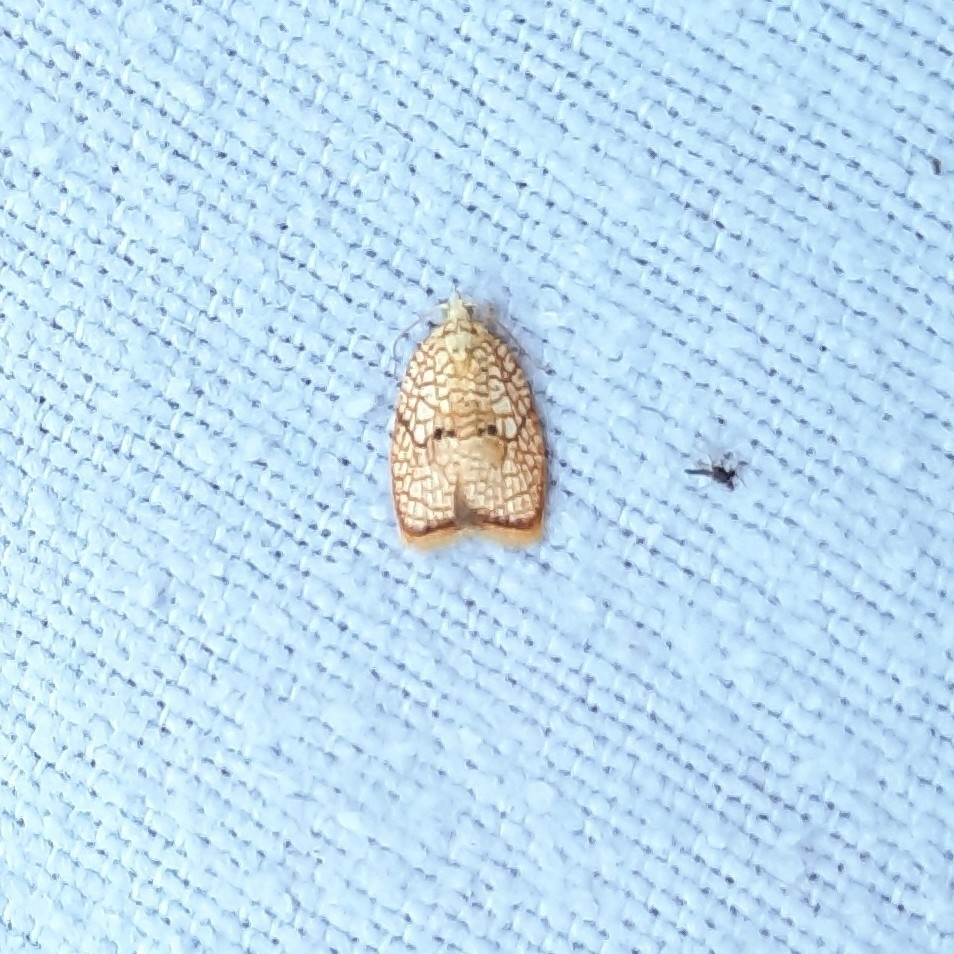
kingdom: Animalia
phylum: Arthropoda
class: Insecta
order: Lepidoptera
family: Tortricidae
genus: Acleris
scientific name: Acleris forsskaleana
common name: Maple button
